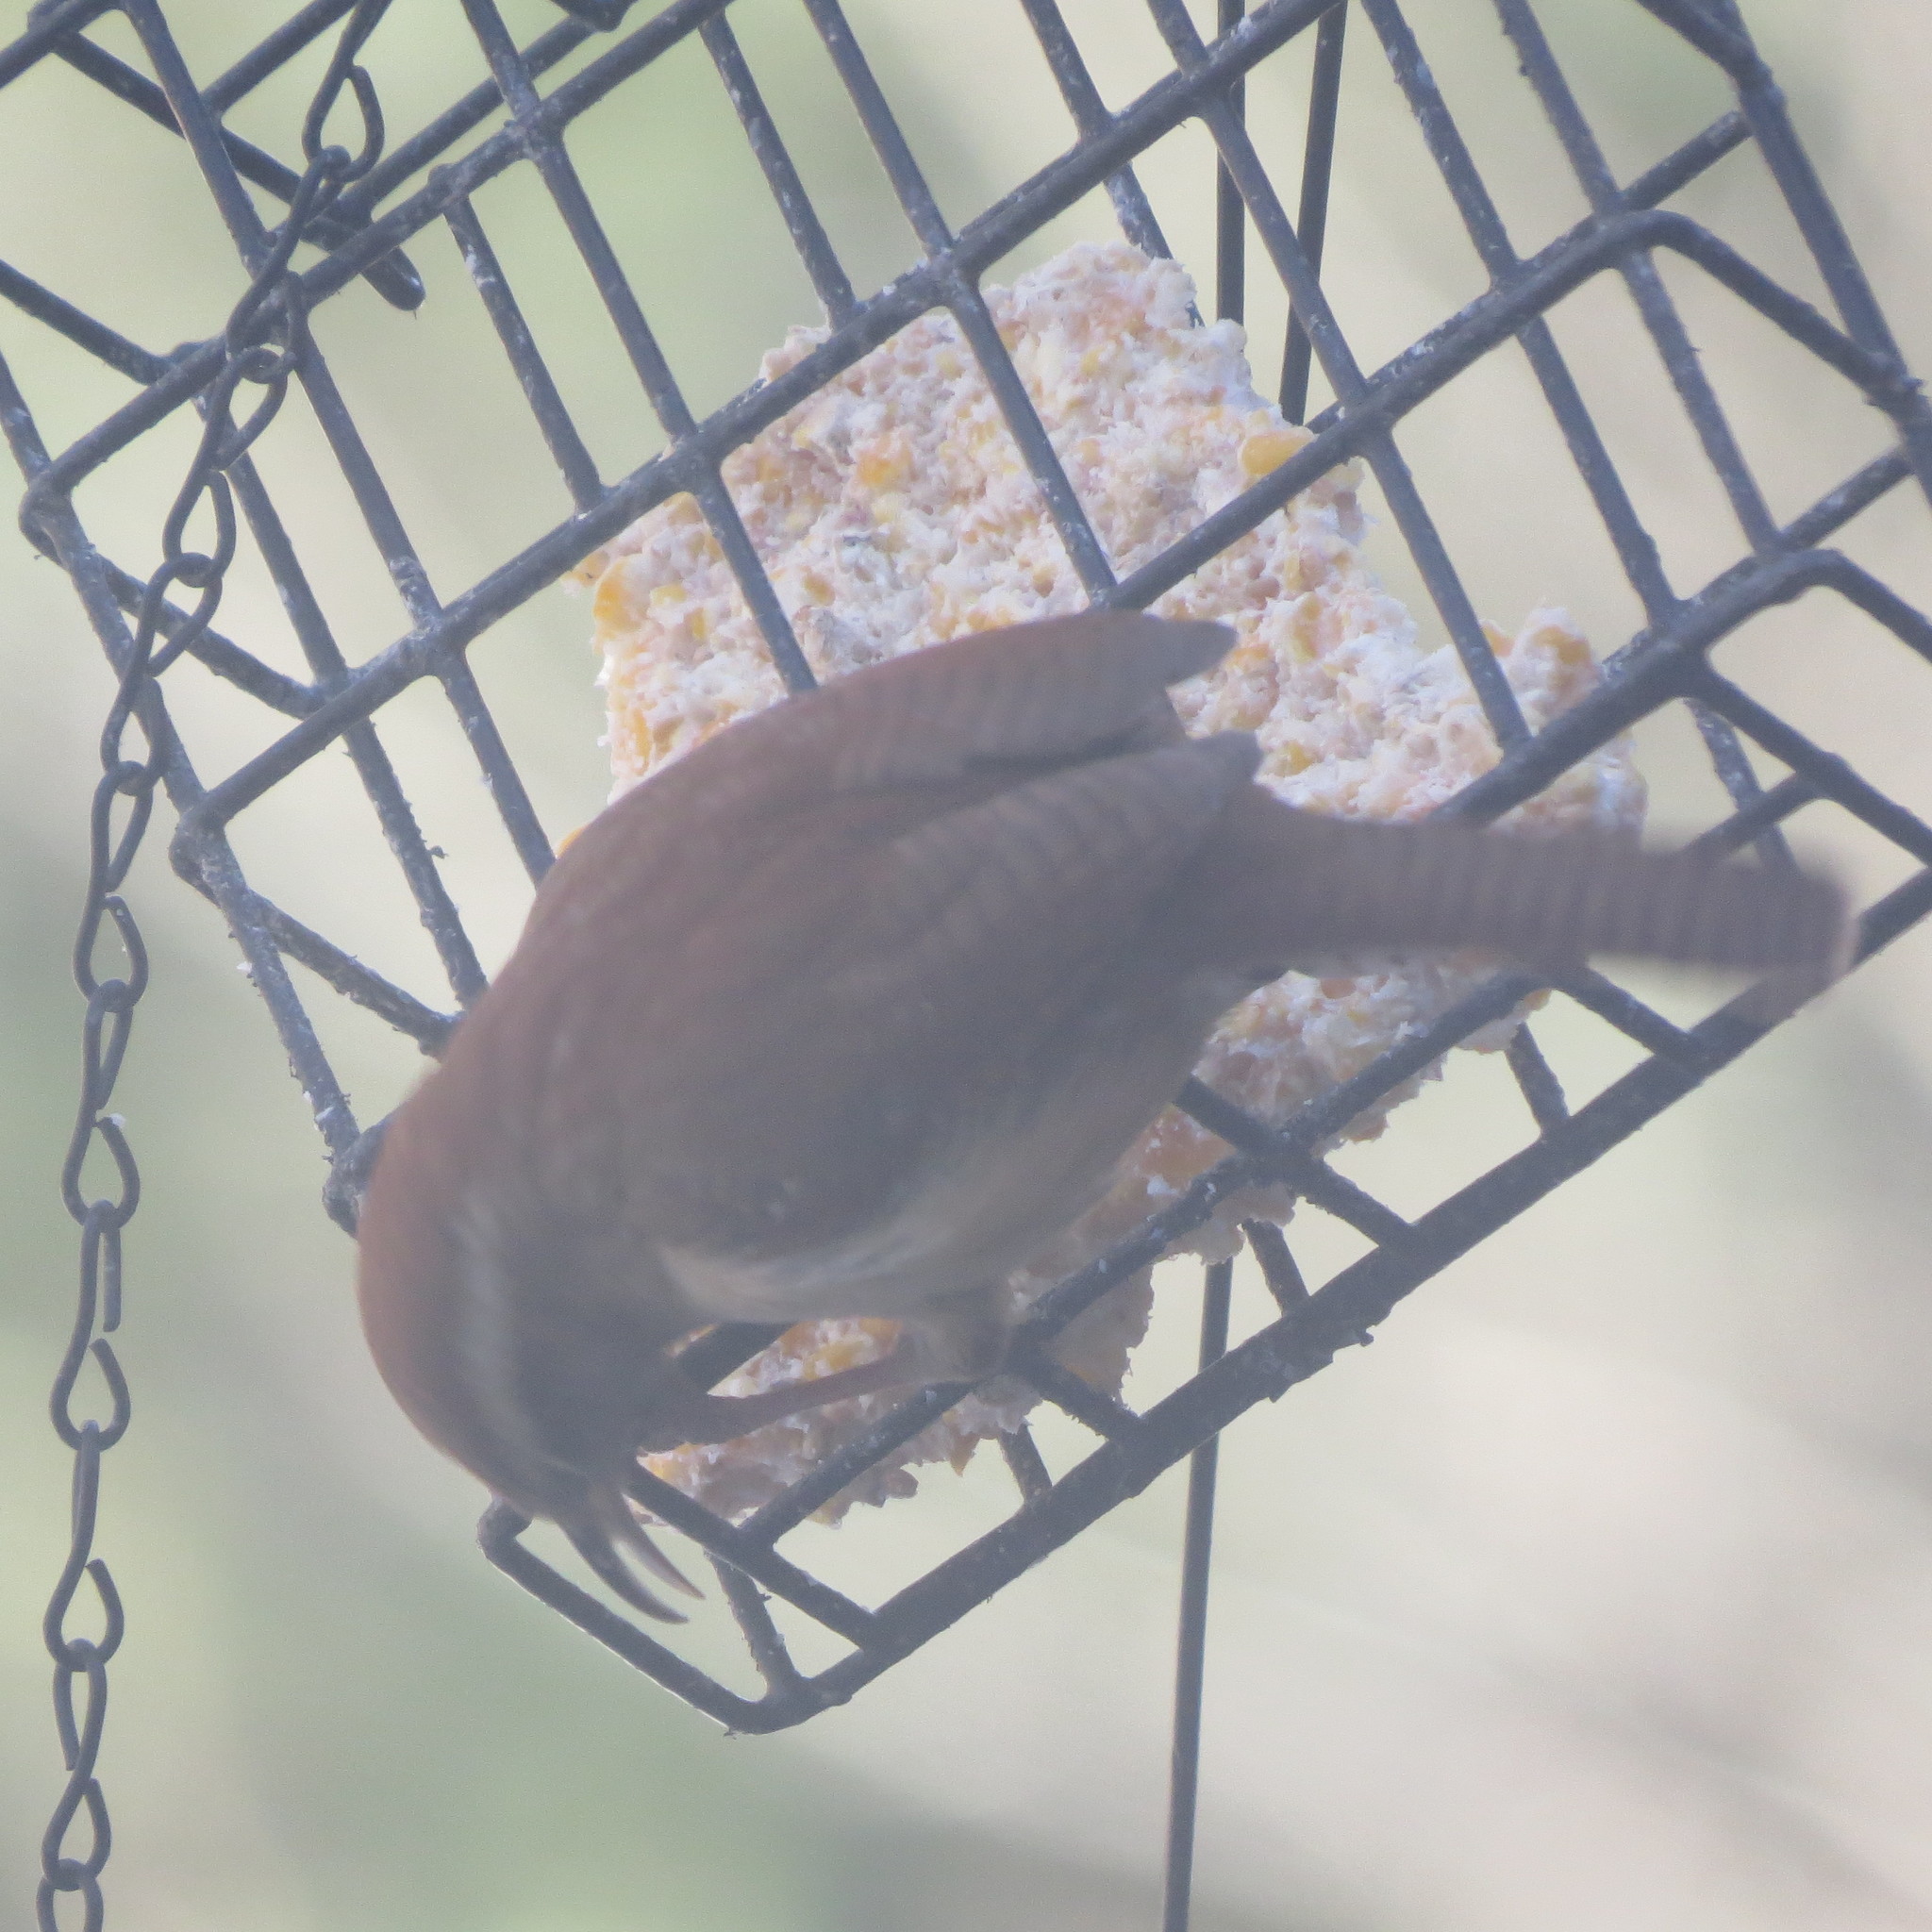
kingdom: Animalia
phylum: Chordata
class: Aves
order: Passeriformes
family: Troglodytidae
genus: Thryothorus
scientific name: Thryothorus ludovicianus
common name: Carolina wren
